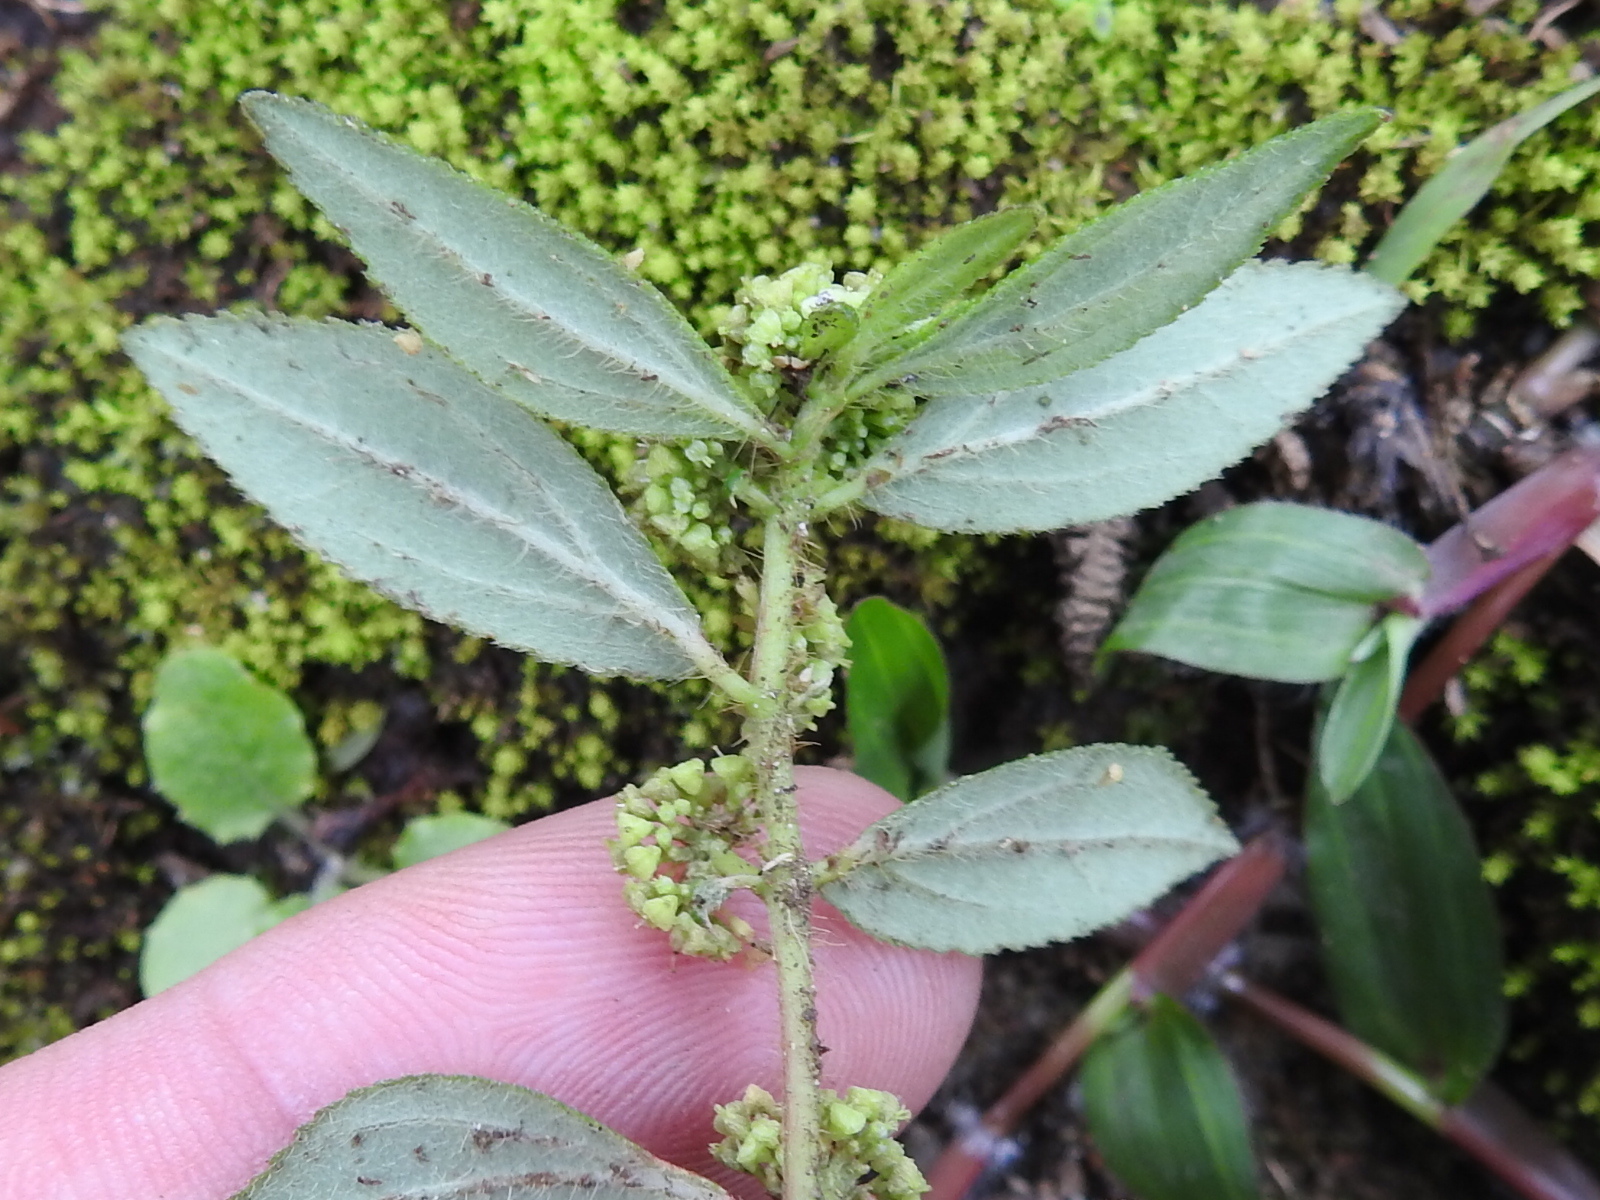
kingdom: Plantae
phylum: Tracheophyta
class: Magnoliopsida
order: Malpighiales
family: Euphorbiaceae
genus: Euphorbia
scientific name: Euphorbia hirta
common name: Pillpod sandmat
